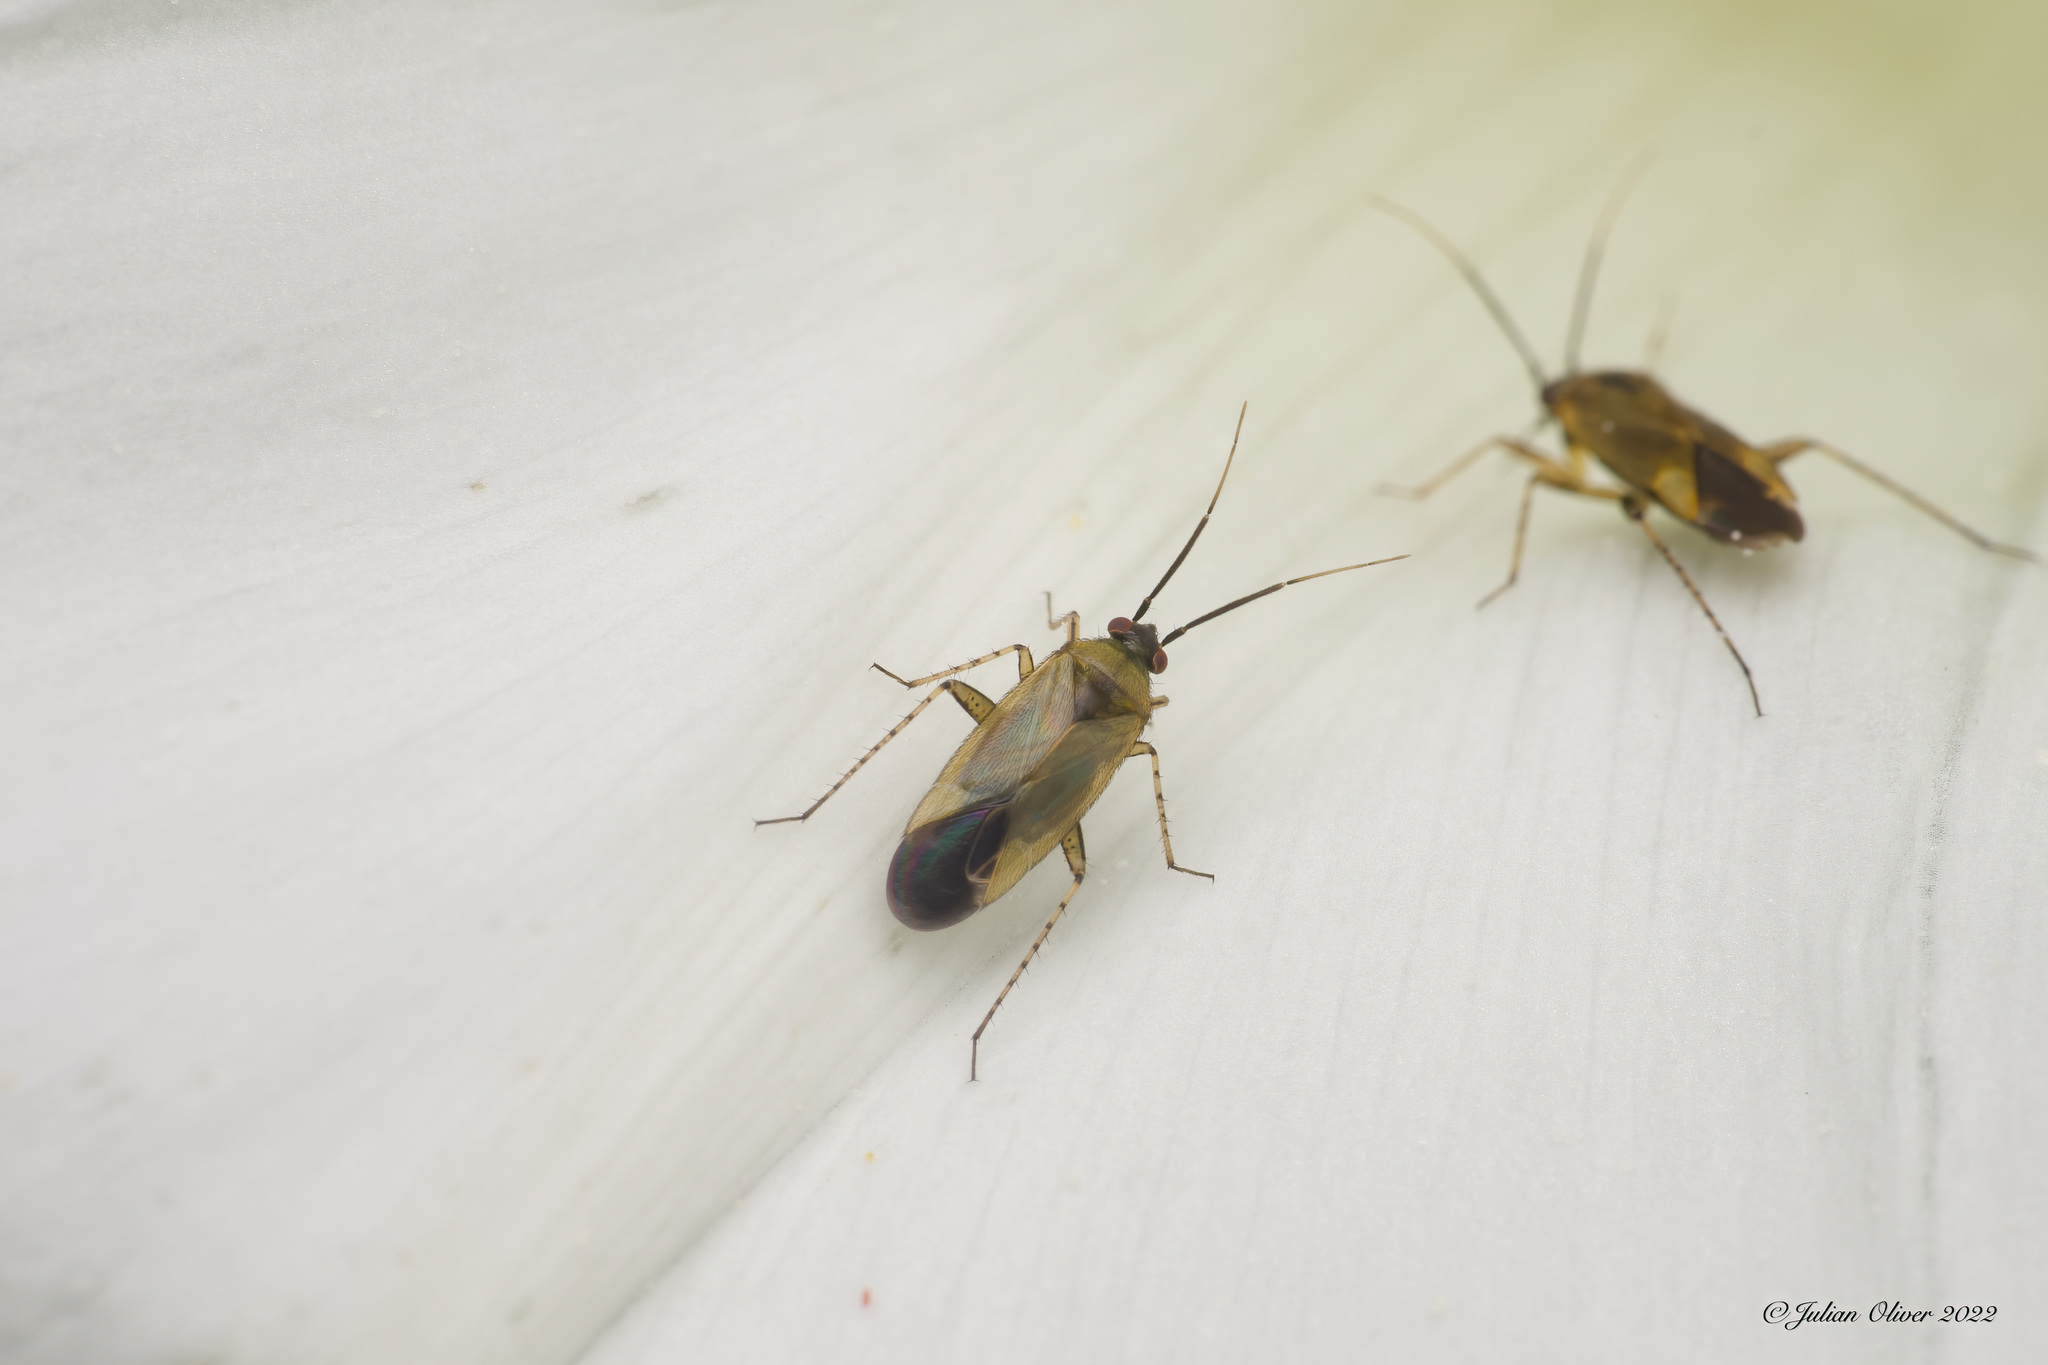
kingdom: Animalia
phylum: Arthropoda
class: Insecta
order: Hemiptera
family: Miridae
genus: Plagiognathus
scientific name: Plagiognathus arbustorum
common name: Plant bug
